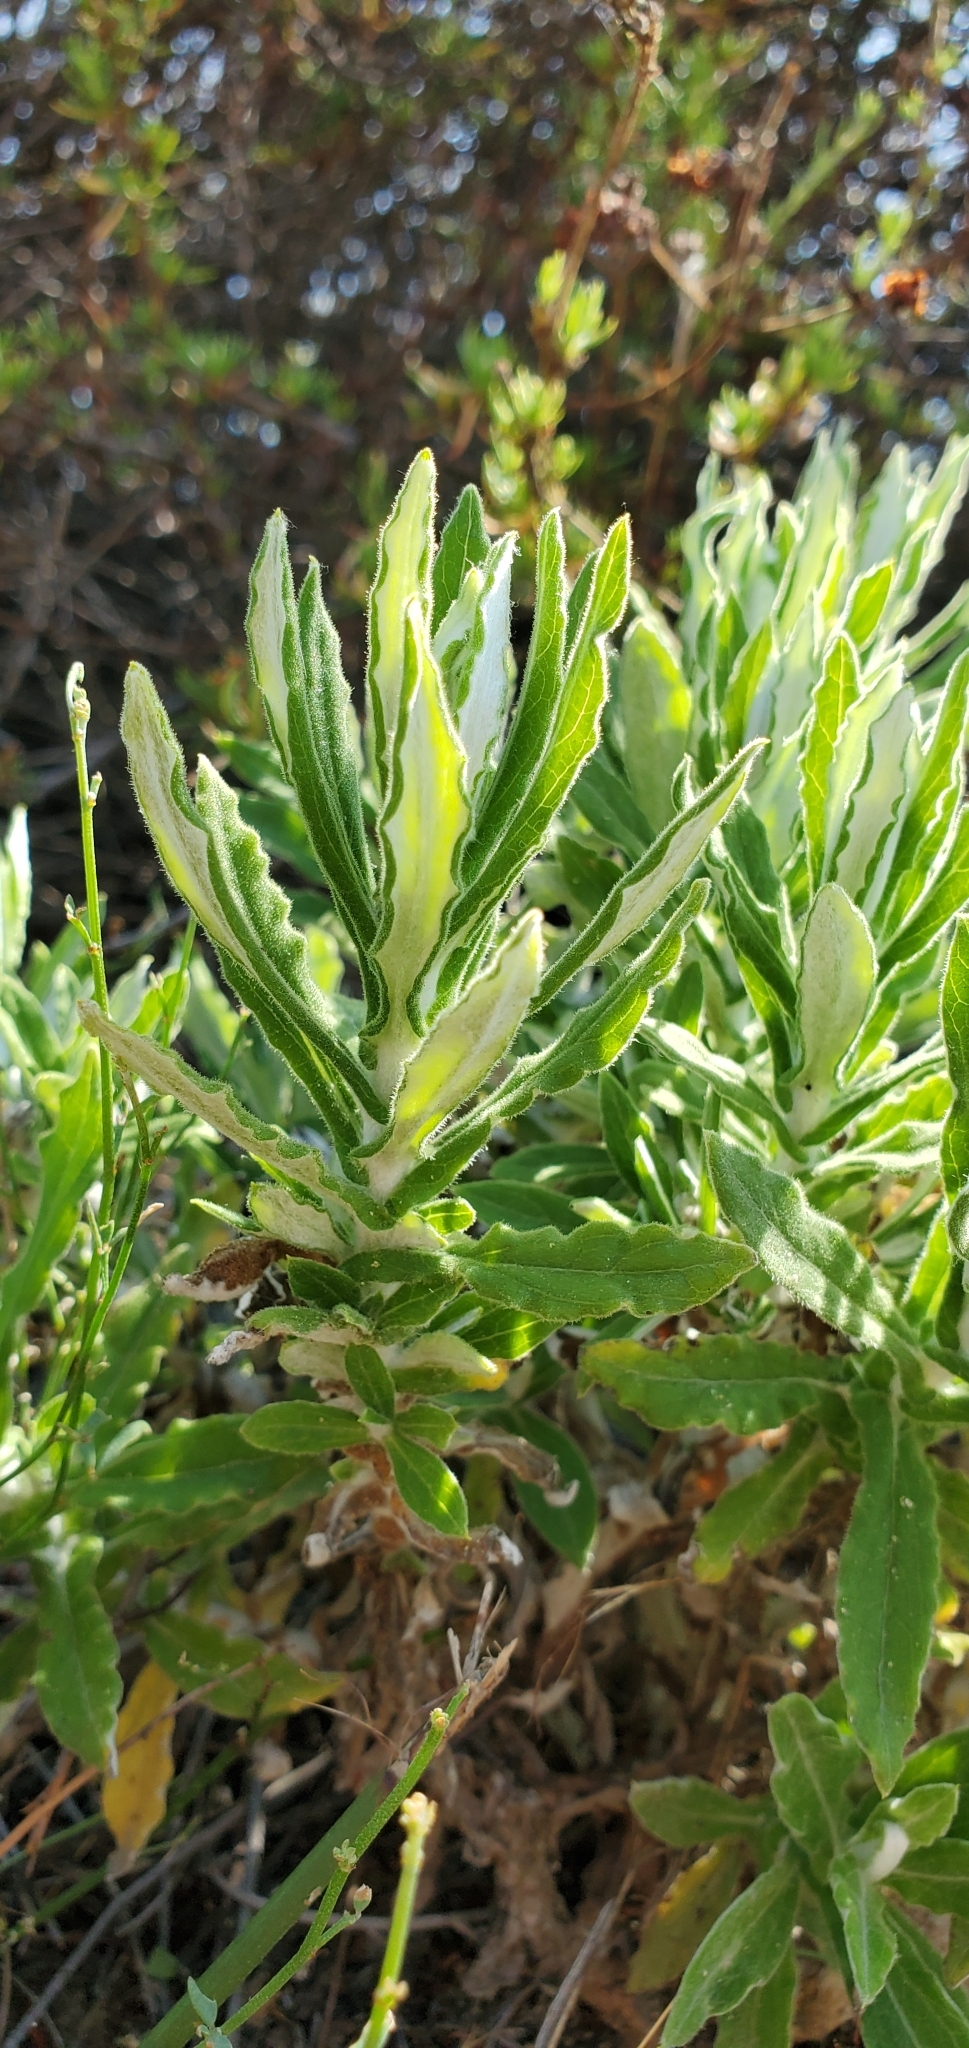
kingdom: Plantae
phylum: Tracheophyta
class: Magnoliopsida
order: Asterales
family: Asteraceae
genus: Pseudognaphalium
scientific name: Pseudognaphalium biolettii
